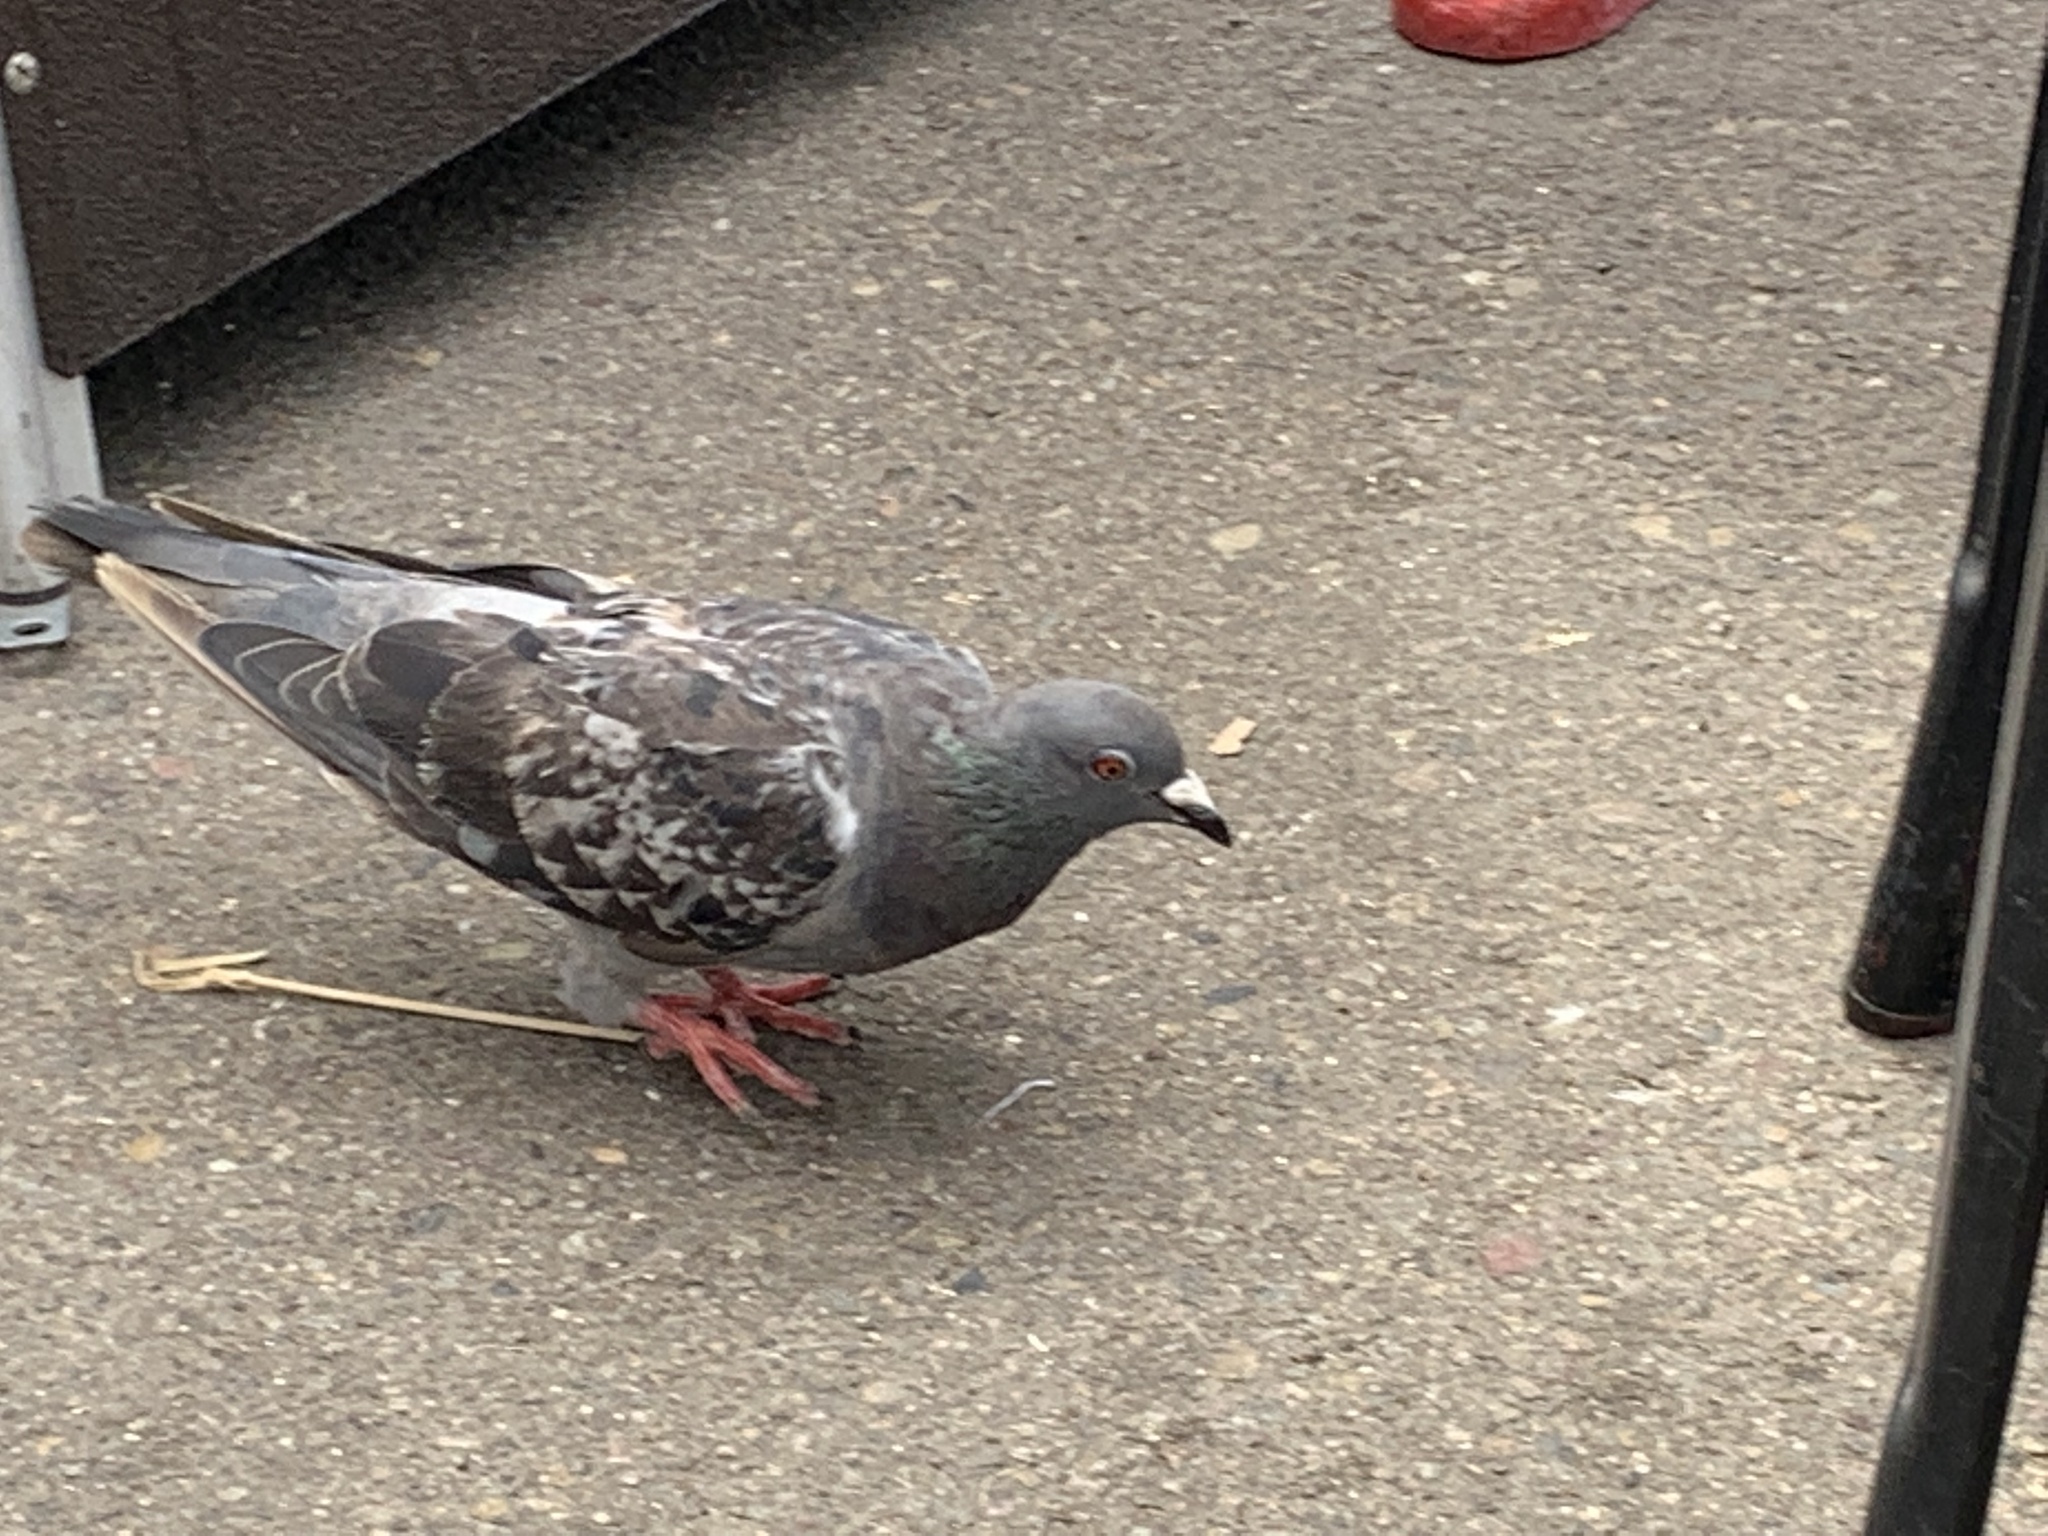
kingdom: Animalia
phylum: Chordata
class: Aves
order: Columbiformes
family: Columbidae
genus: Columba
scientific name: Columba livia
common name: Rock pigeon
